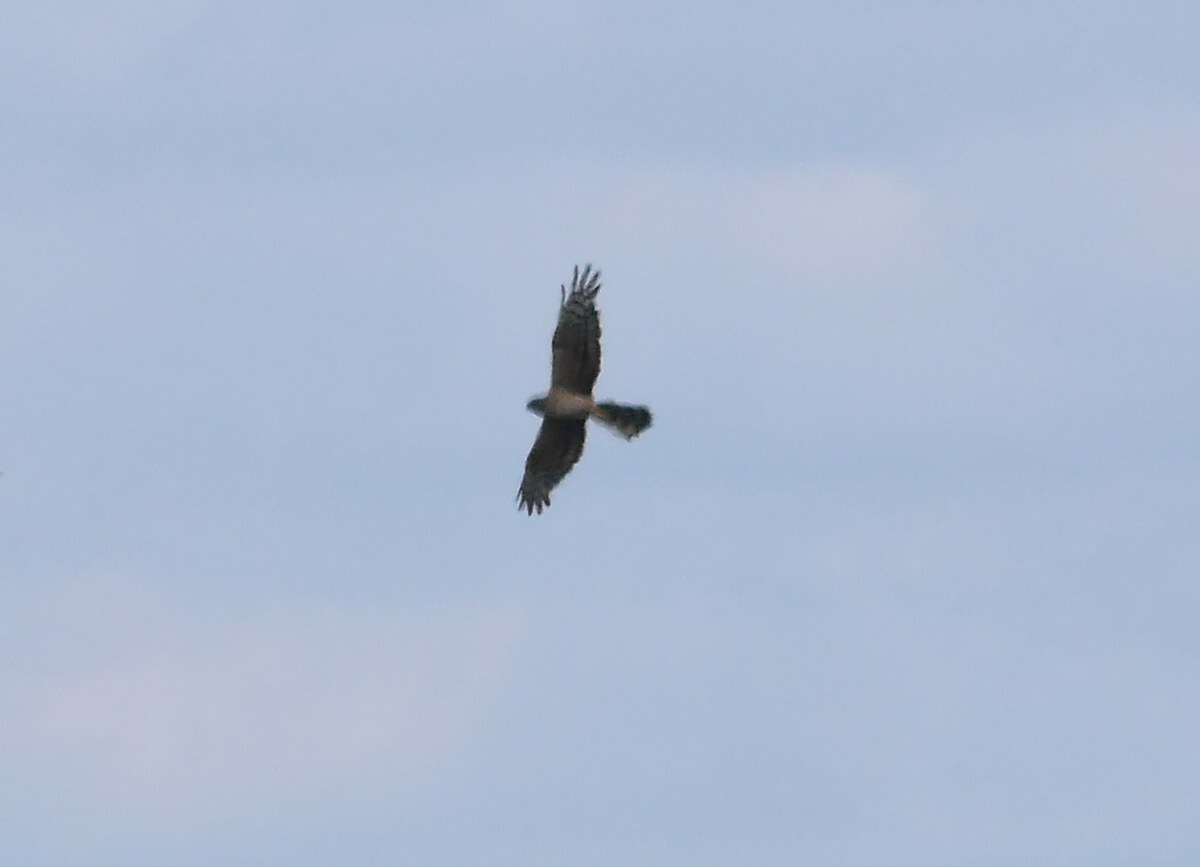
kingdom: Animalia
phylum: Chordata
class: Aves
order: Accipitriformes
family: Accipitridae
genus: Circus
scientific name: Circus pygargus
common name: Montagu's harrier
